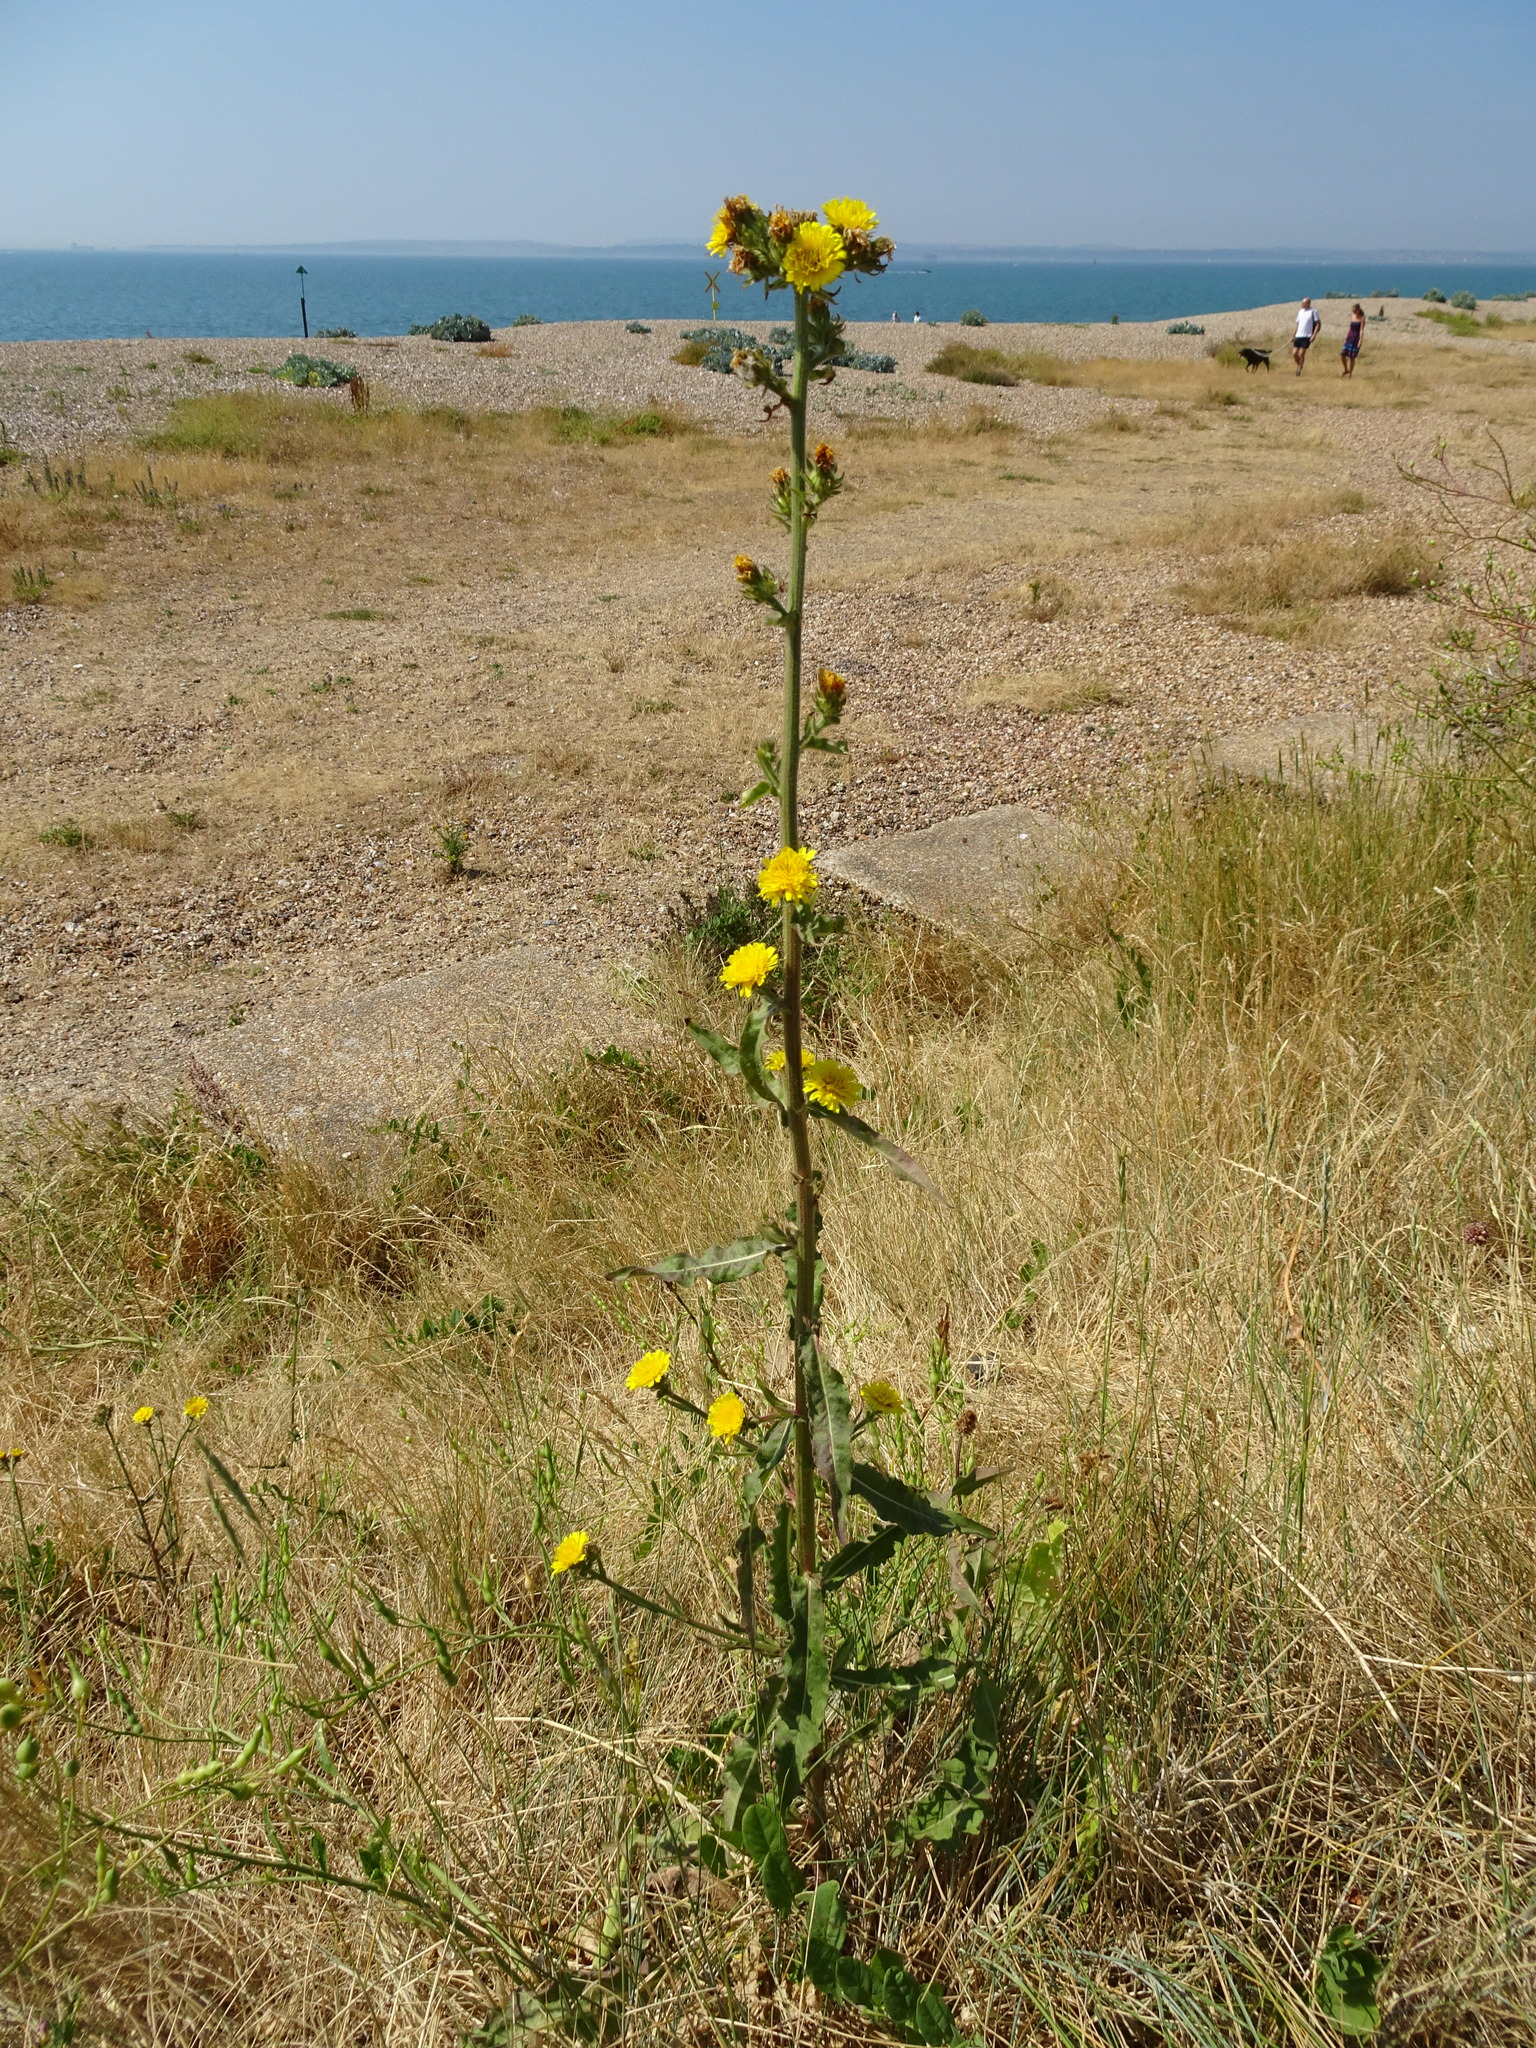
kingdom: Plantae
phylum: Tracheophyta
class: Magnoliopsida
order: Asterales
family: Asteraceae
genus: Picris
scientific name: Picris hieracioides
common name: Hawkweed oxtongue
